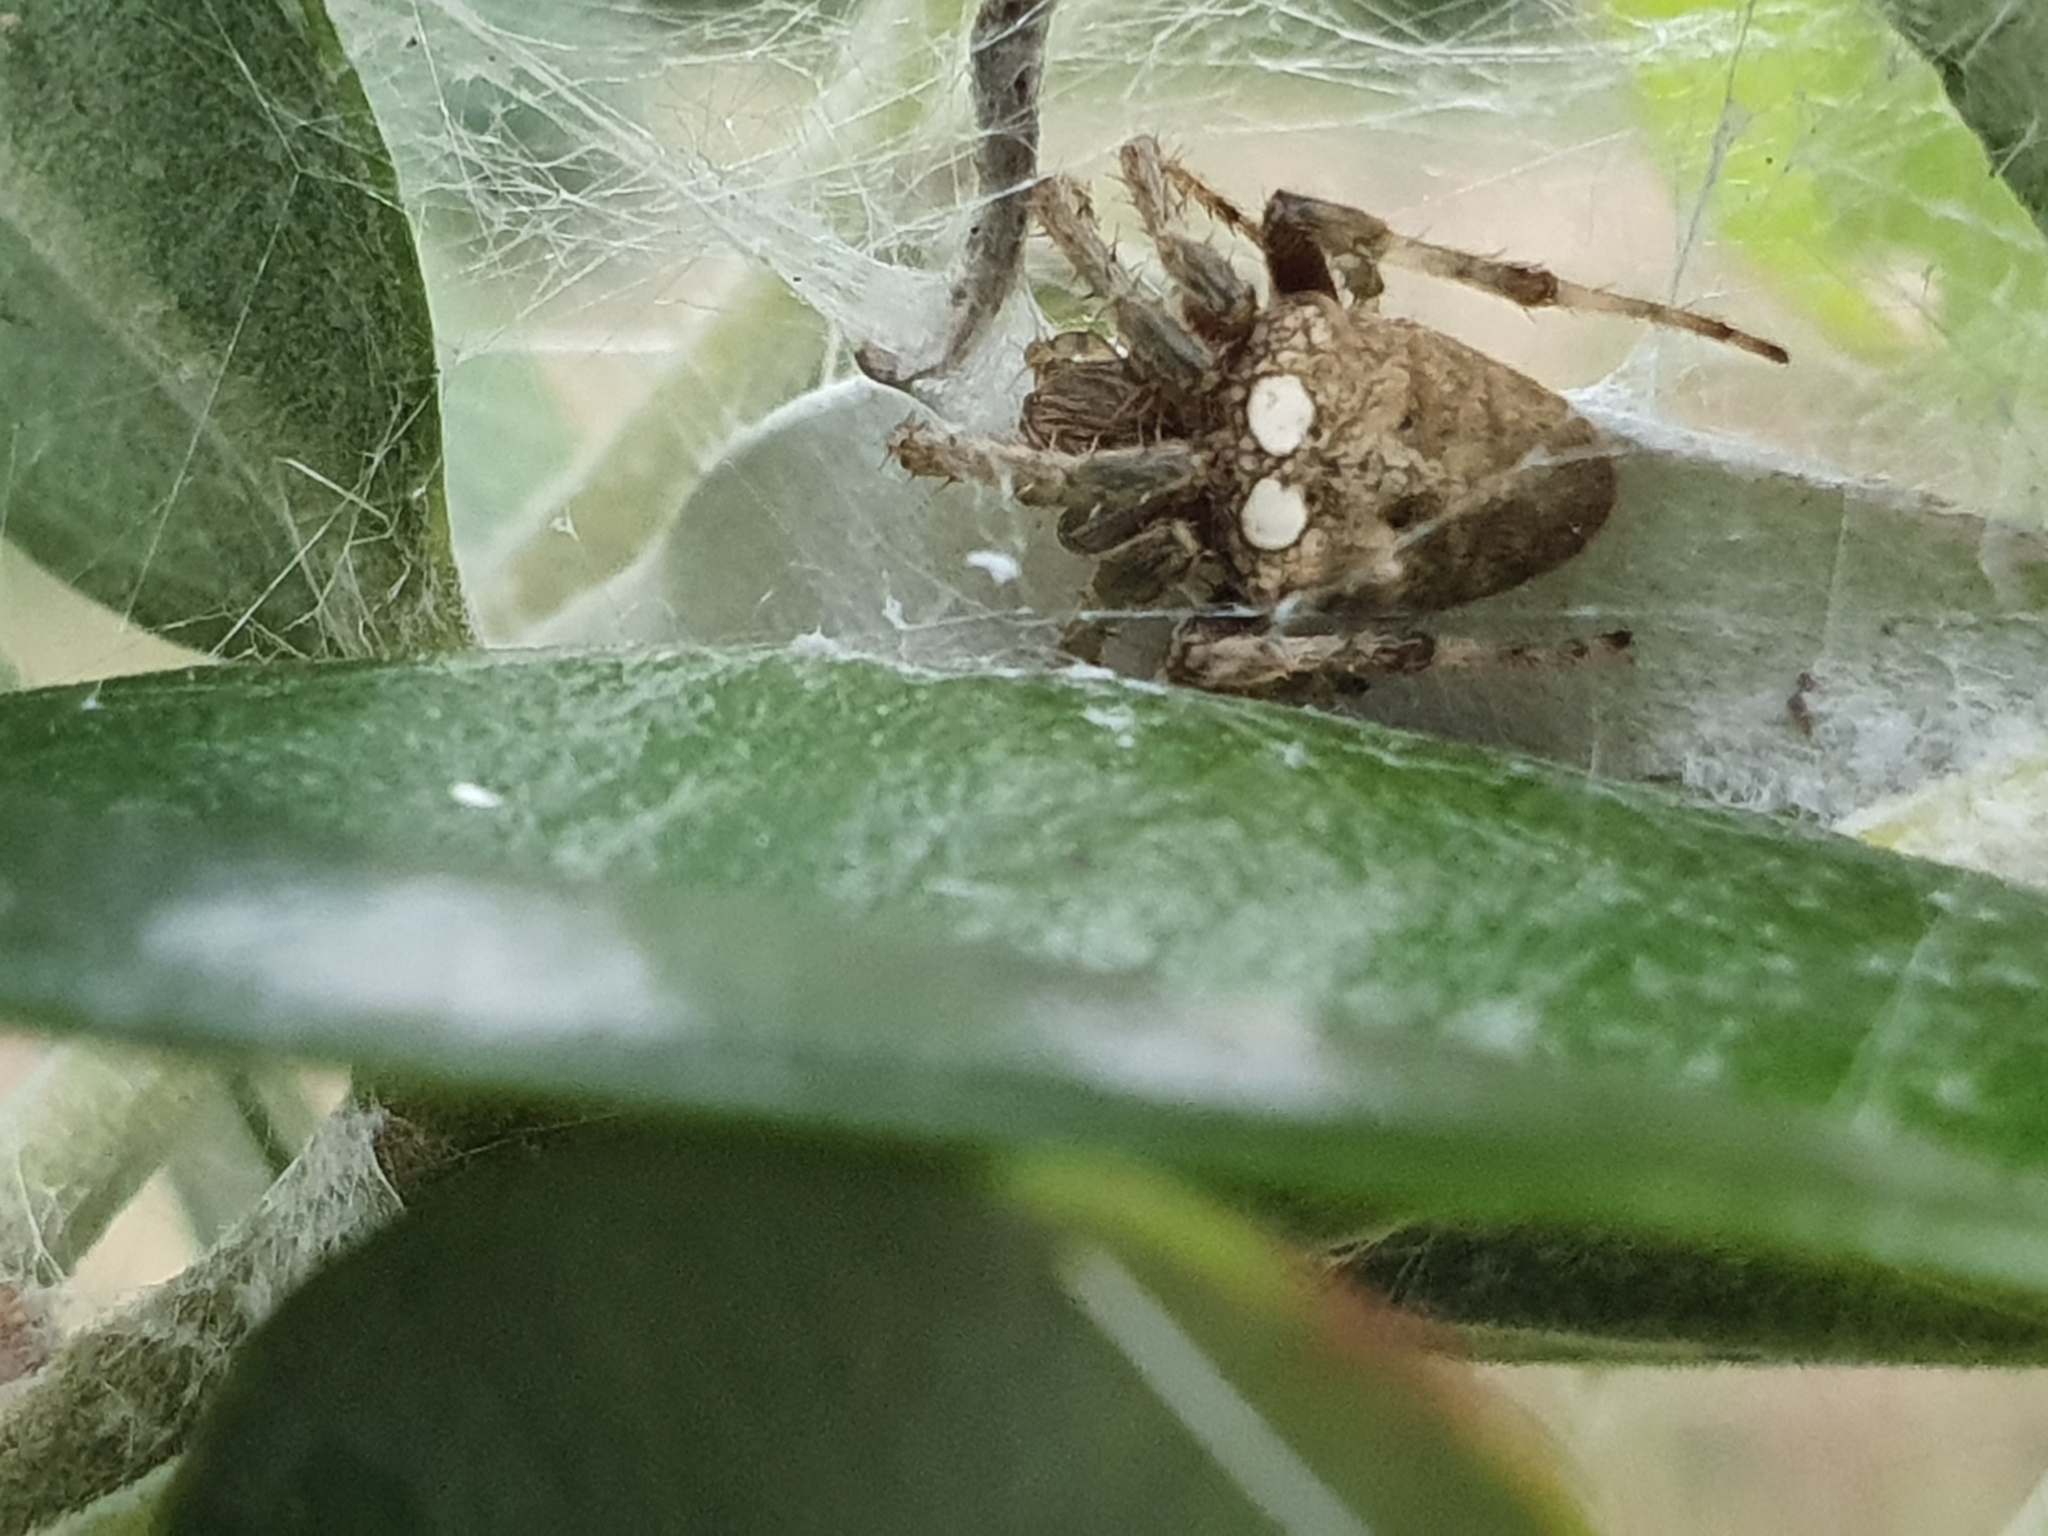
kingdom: Animalia
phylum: Arthropoda
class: Arachnida
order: Araneae
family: Araneidae
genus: Zealaranea
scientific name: Zealaranea crassa
